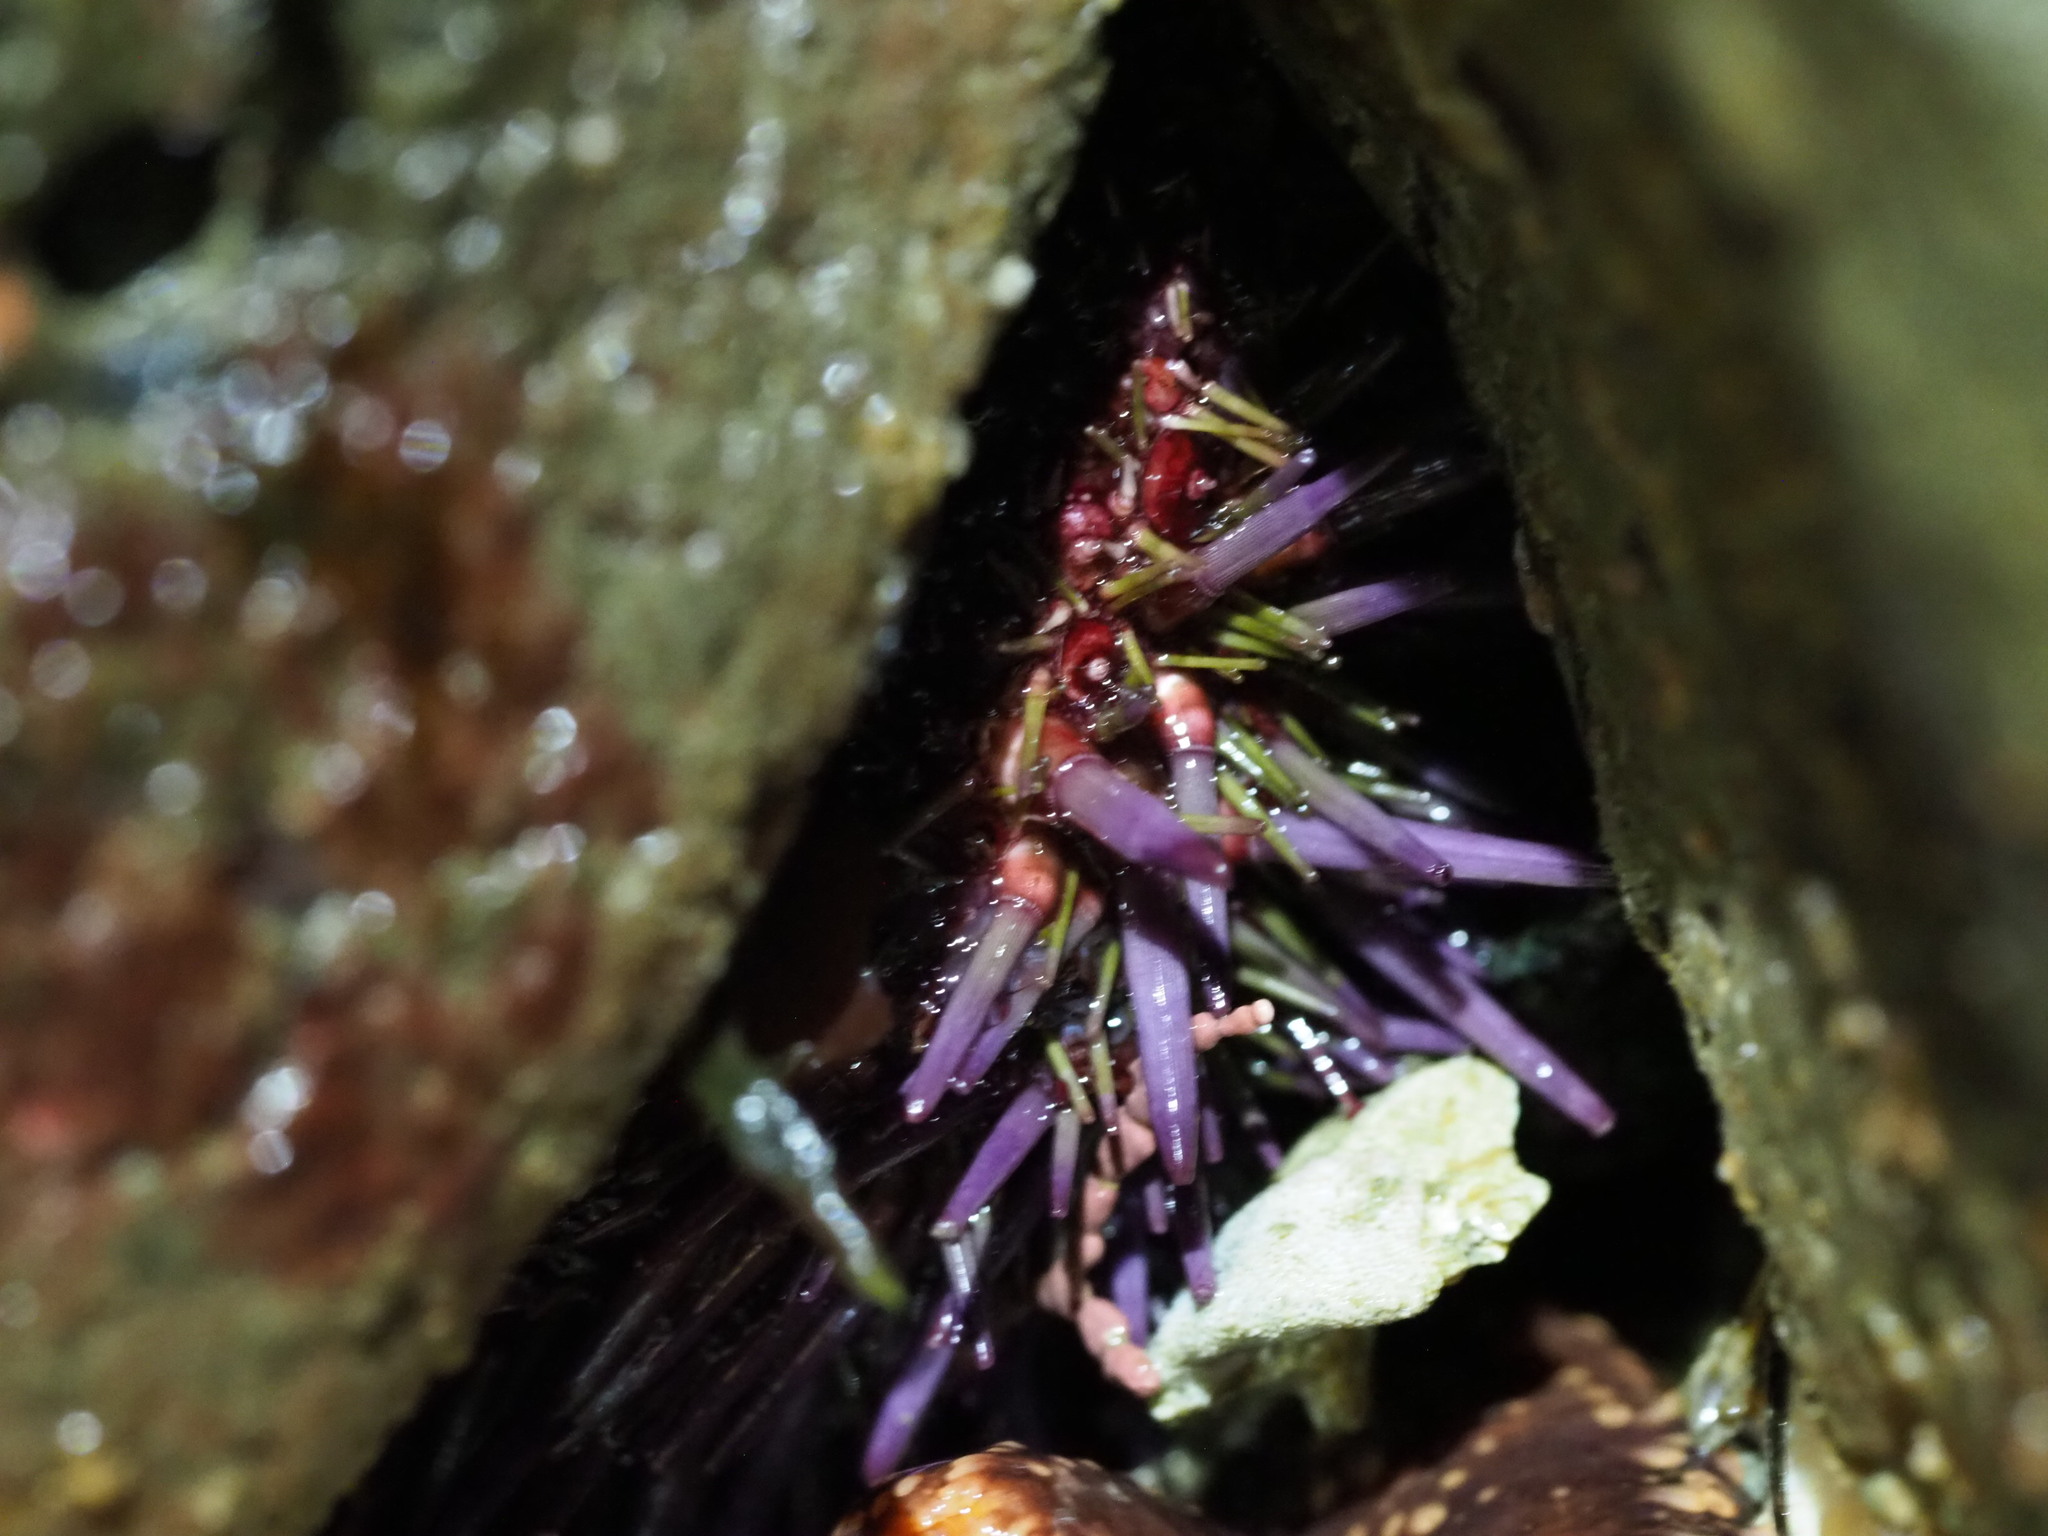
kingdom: Animalia
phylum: Echinodermata
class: Echinoidea
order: Camarodonta
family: Strongylocentrotidae
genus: Strongylocentrotus
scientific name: Strongylocentrotus purpuratus
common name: Purple sea urchin
